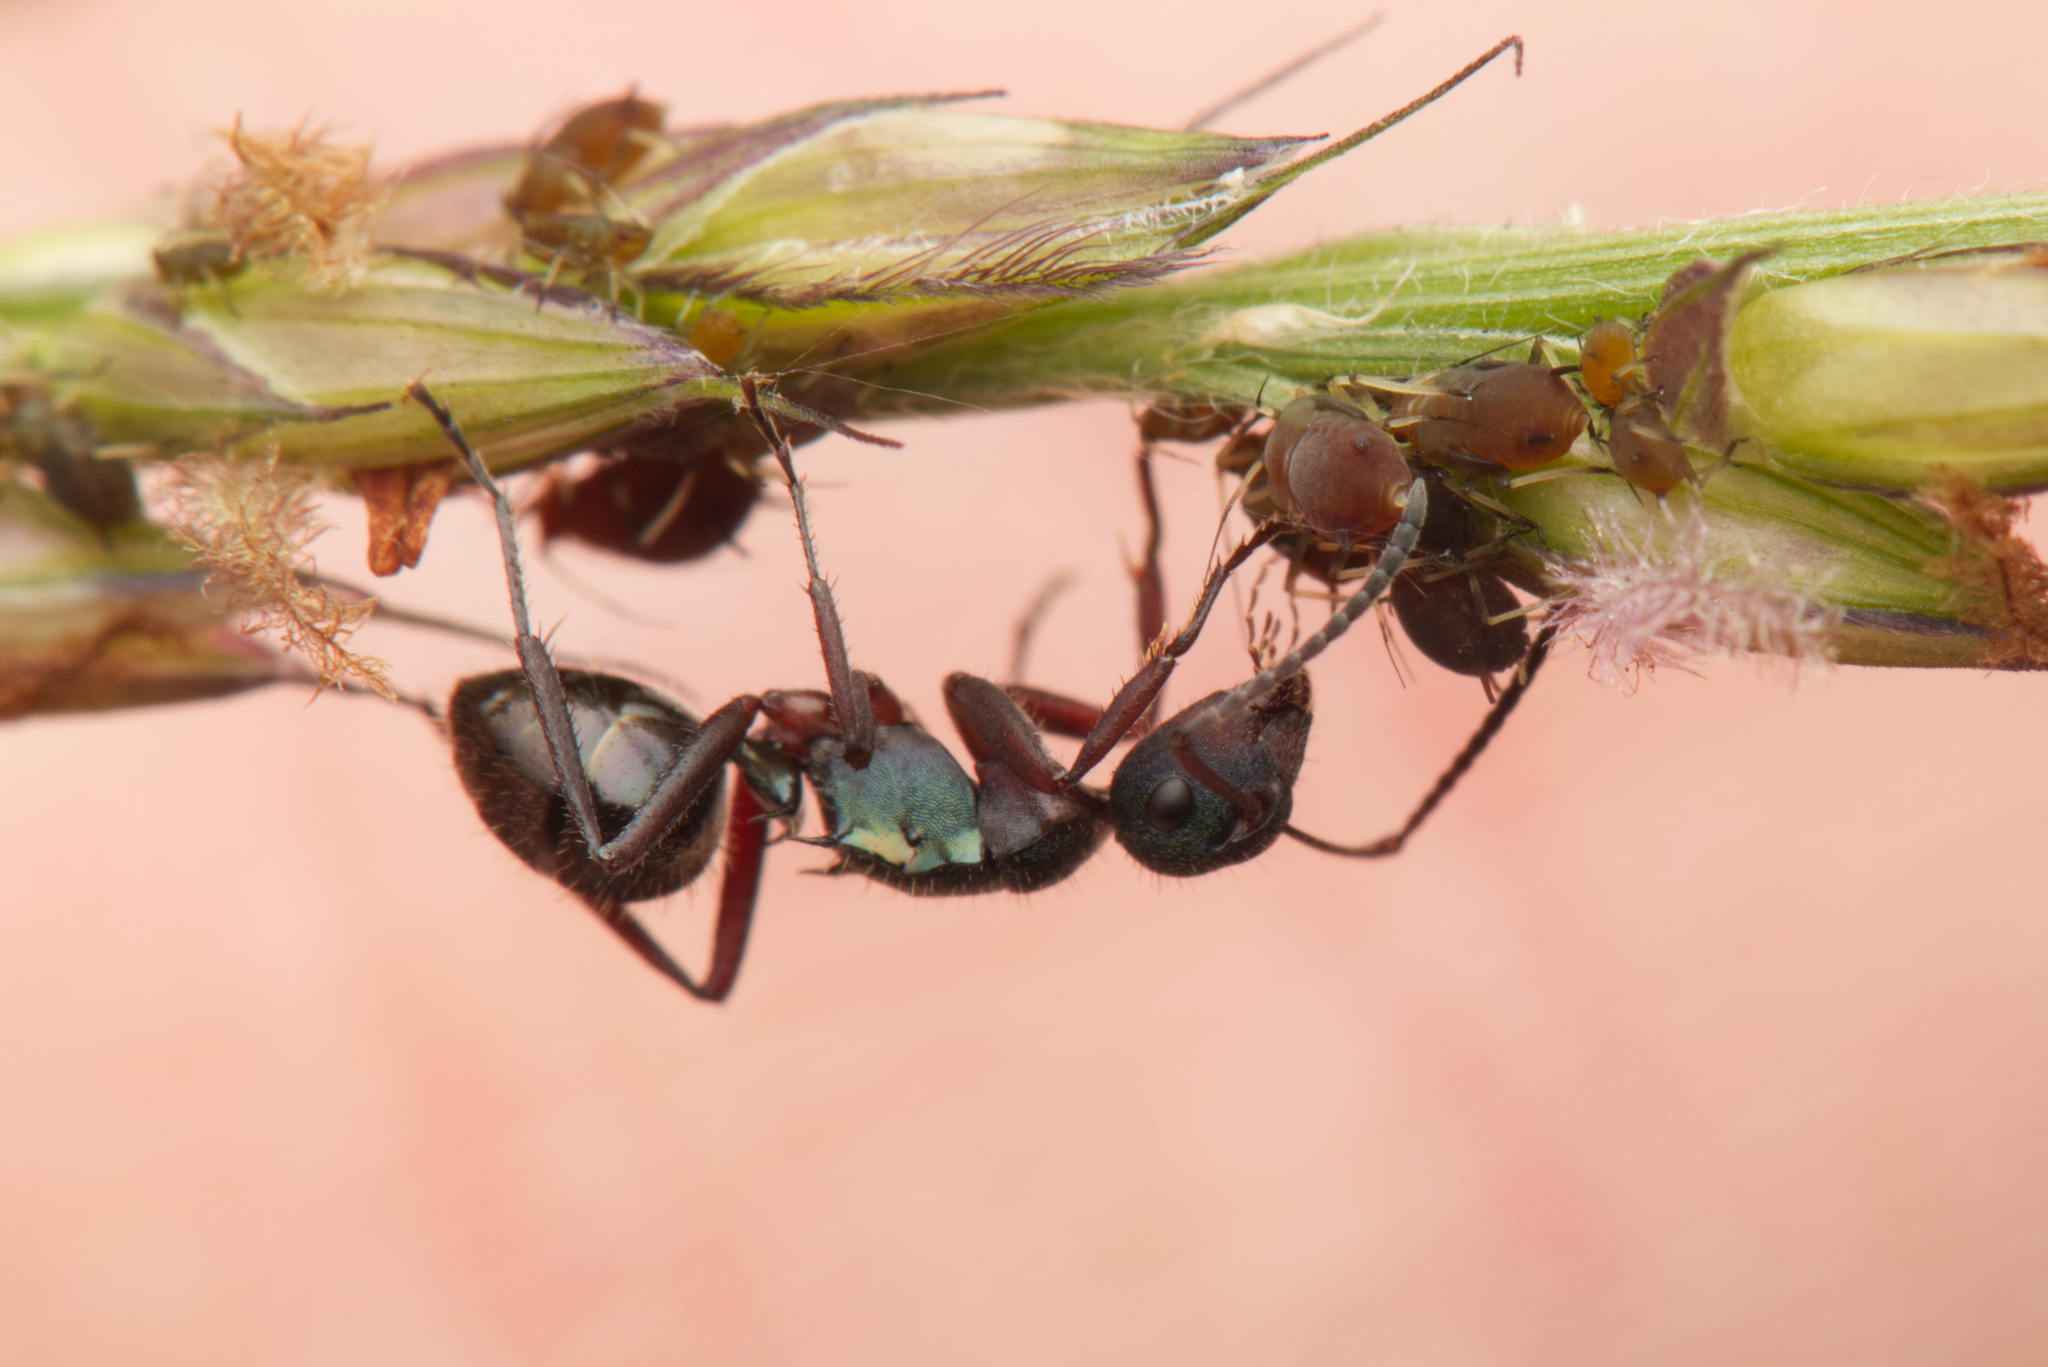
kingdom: Animalia
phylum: Arthropoda
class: Insecta
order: Hymenoptera
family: Formicidae
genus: Polyrhachis
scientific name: Polyrhachis lydiae
